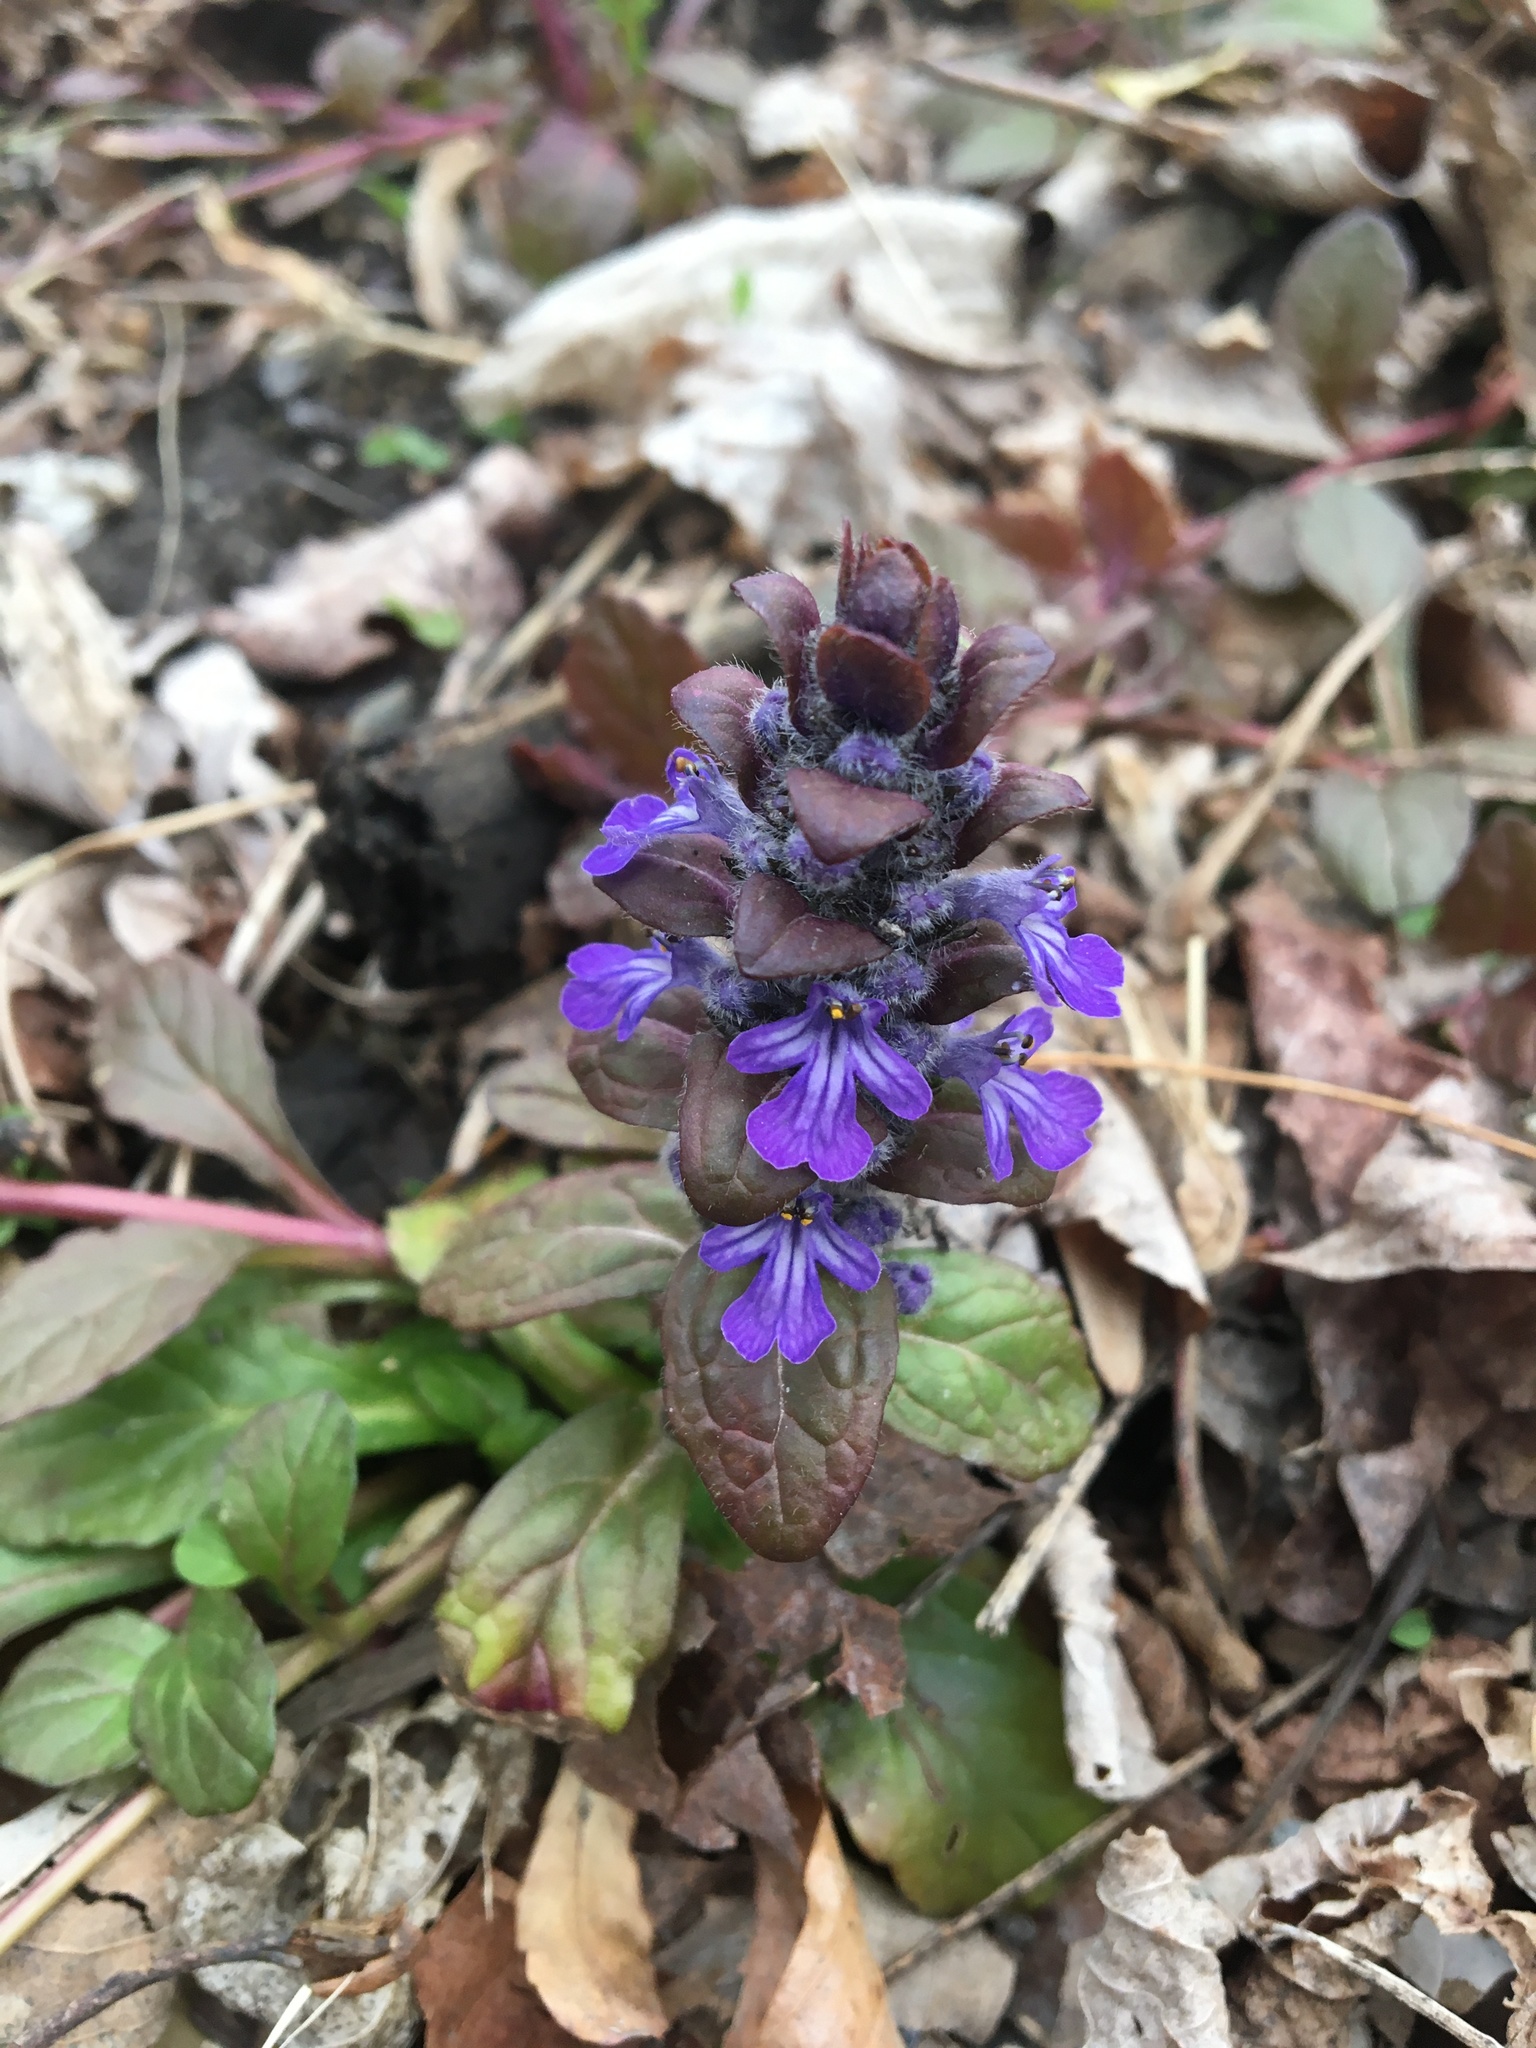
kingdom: Plantae
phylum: Tracheophyta
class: Magnoliopsida
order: Lamiales
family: Lamiaceae
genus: Ajuga
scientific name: Ajuga reptans
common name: Bugle
